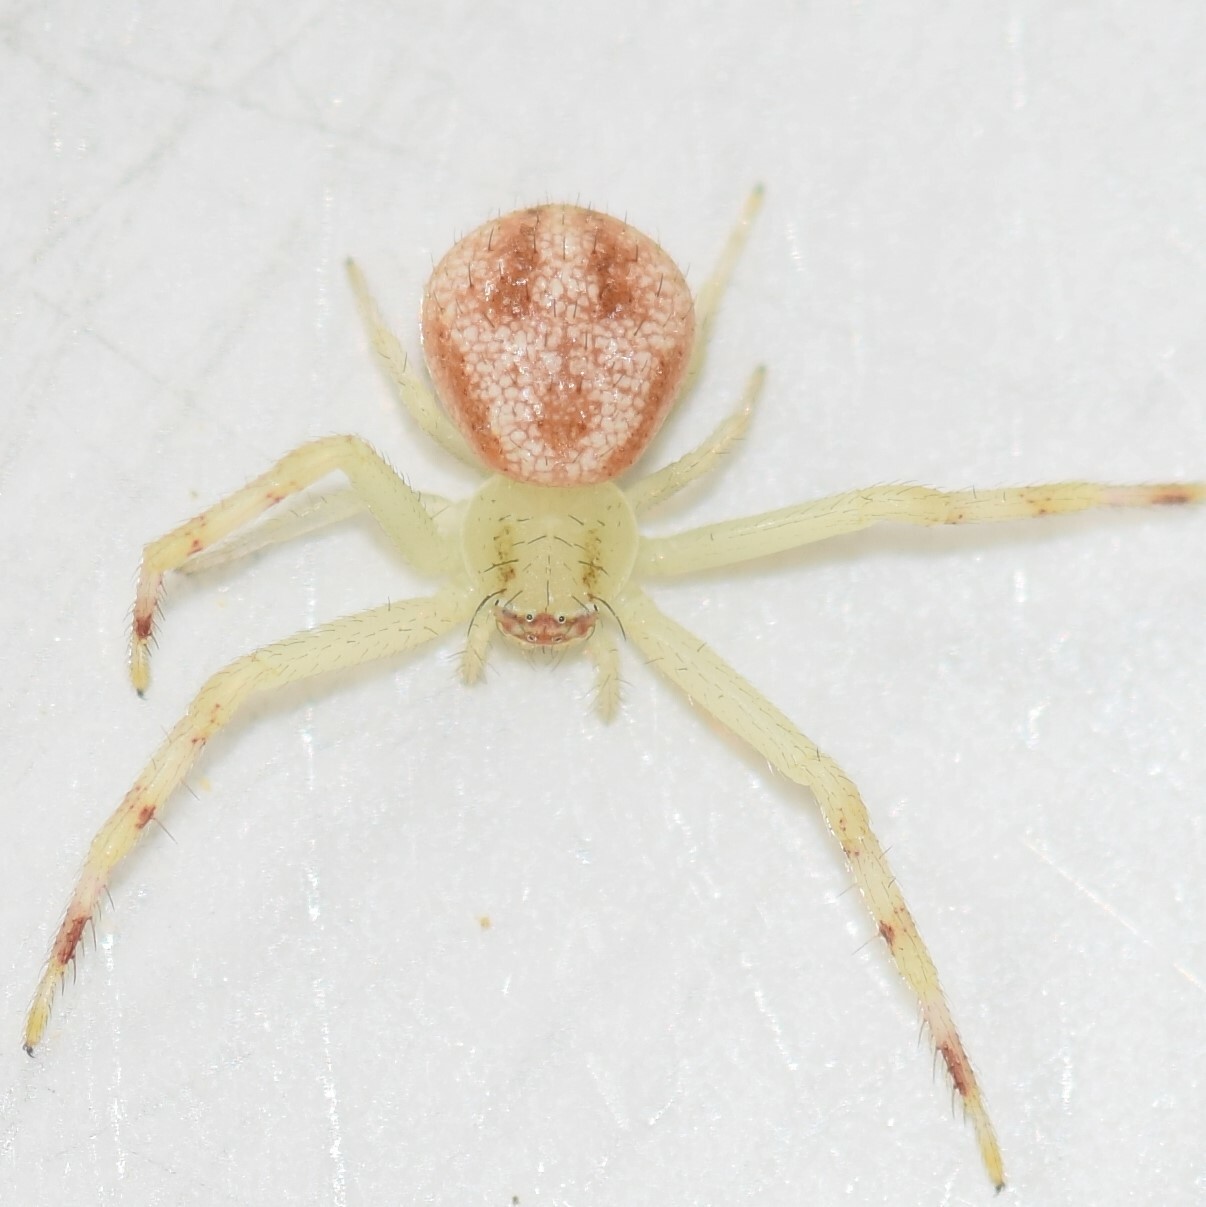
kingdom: Animalia
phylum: Arthropoda
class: Arachnida
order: Araneae
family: Thomisidae
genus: Mecaphesa
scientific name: Mecaphesa asperata
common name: Crab spiders
